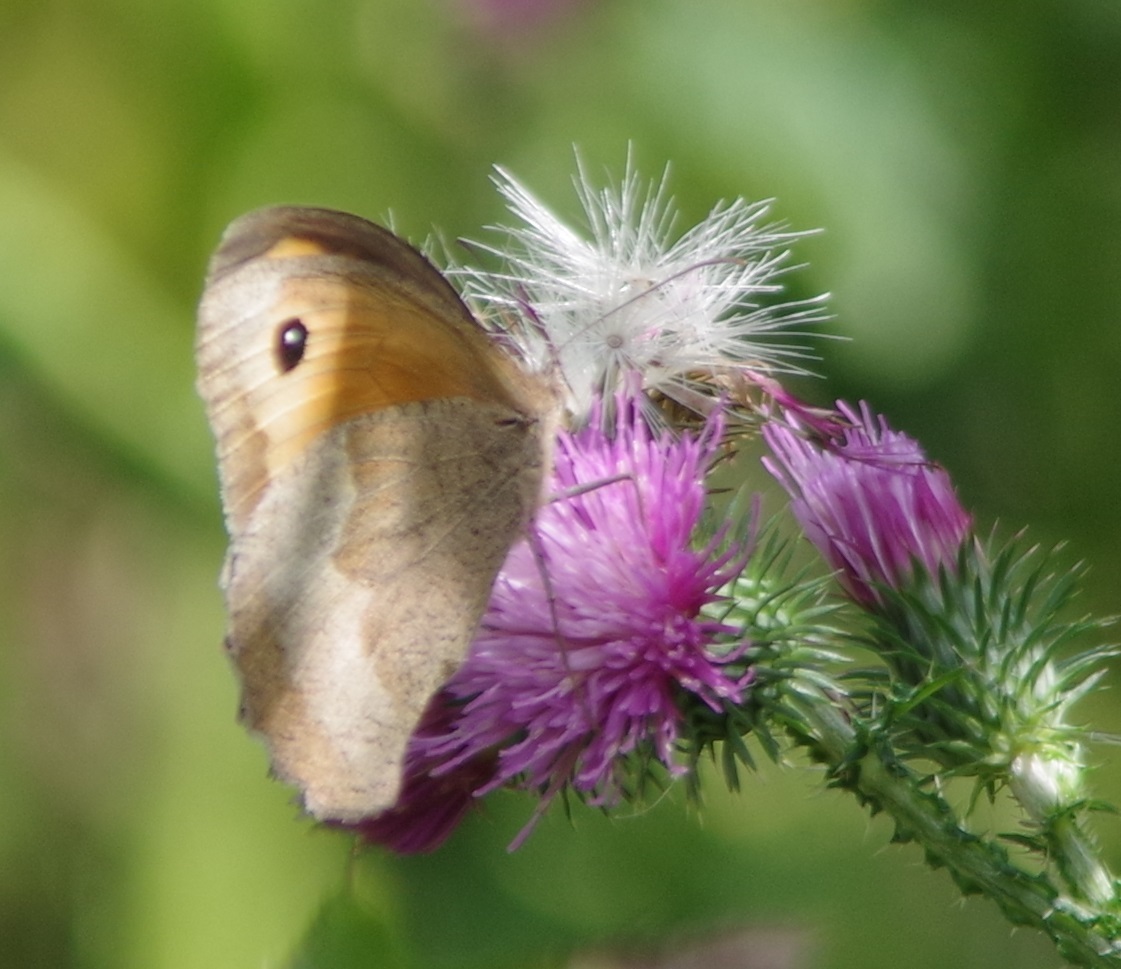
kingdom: Animalia
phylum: Arthropoda
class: Insecta
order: Lepidoptera
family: Nymphalidae
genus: Maniola
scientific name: Maniola jurtina
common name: Meadow brown
